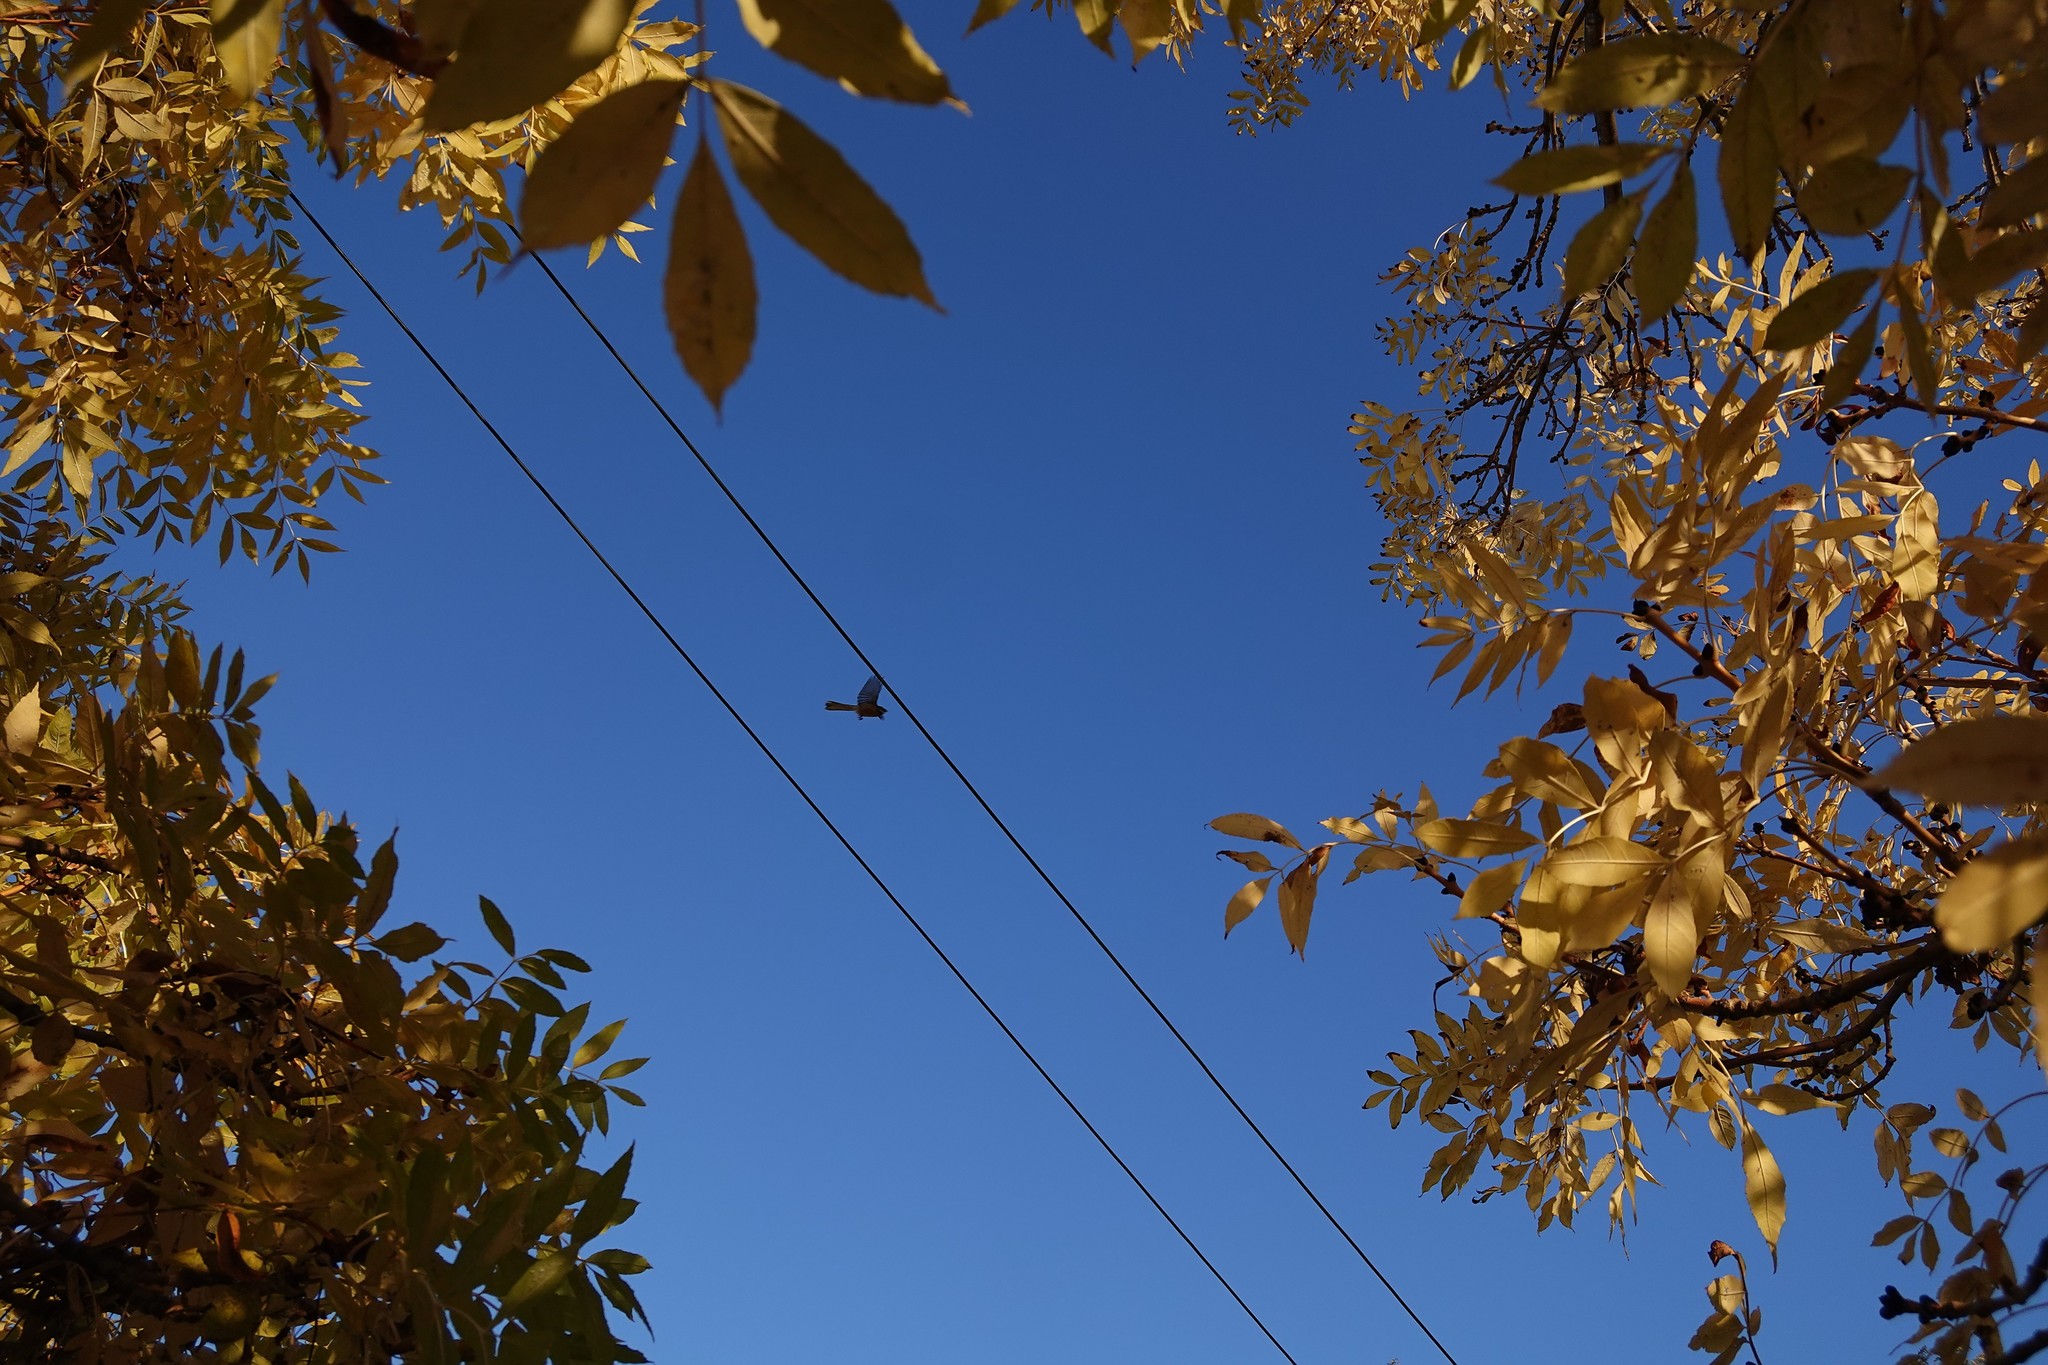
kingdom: Animalia
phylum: Chordata
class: Aves
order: Passeriformes
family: Rhipiduridae
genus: Rhipidura
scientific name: Rhipidura fuliginosa
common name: New zealand fantail
